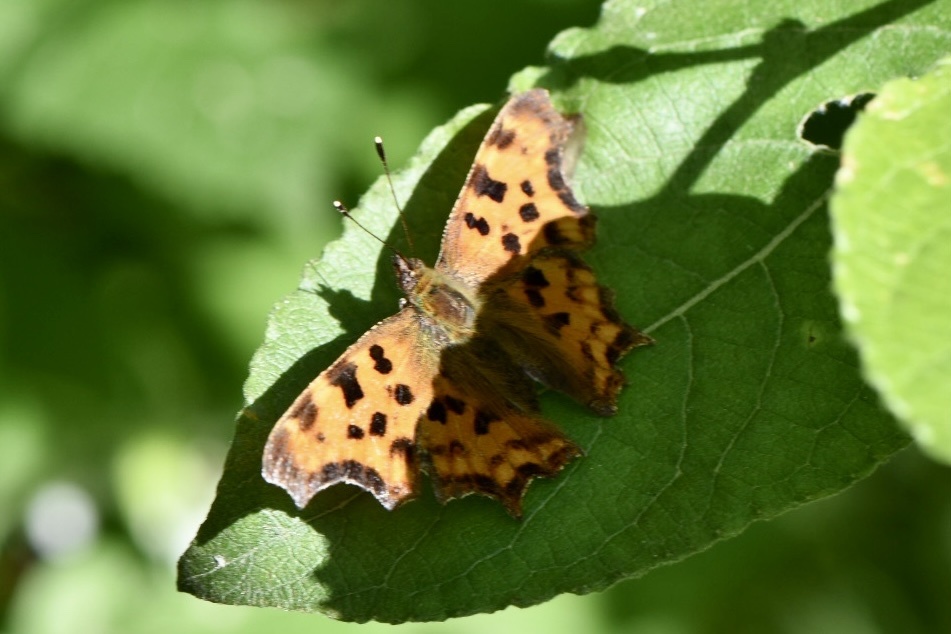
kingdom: Animalia
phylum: Arthropoda
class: Insecta
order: Lepidoptera
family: Nymphalidae
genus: Polygonia
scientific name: Polygonia c-album
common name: Comma
